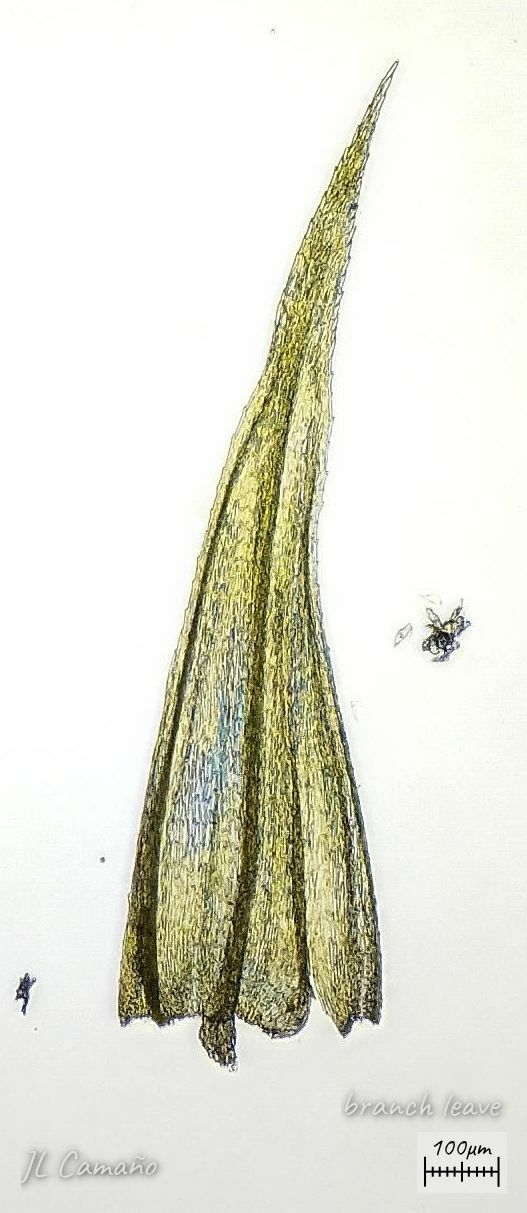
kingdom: Plantae
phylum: Bryophyta
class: Bryopsida
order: Hypnales
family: Brachytheciaceae
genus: Homalothecium
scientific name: Homalothecium philippeanum
